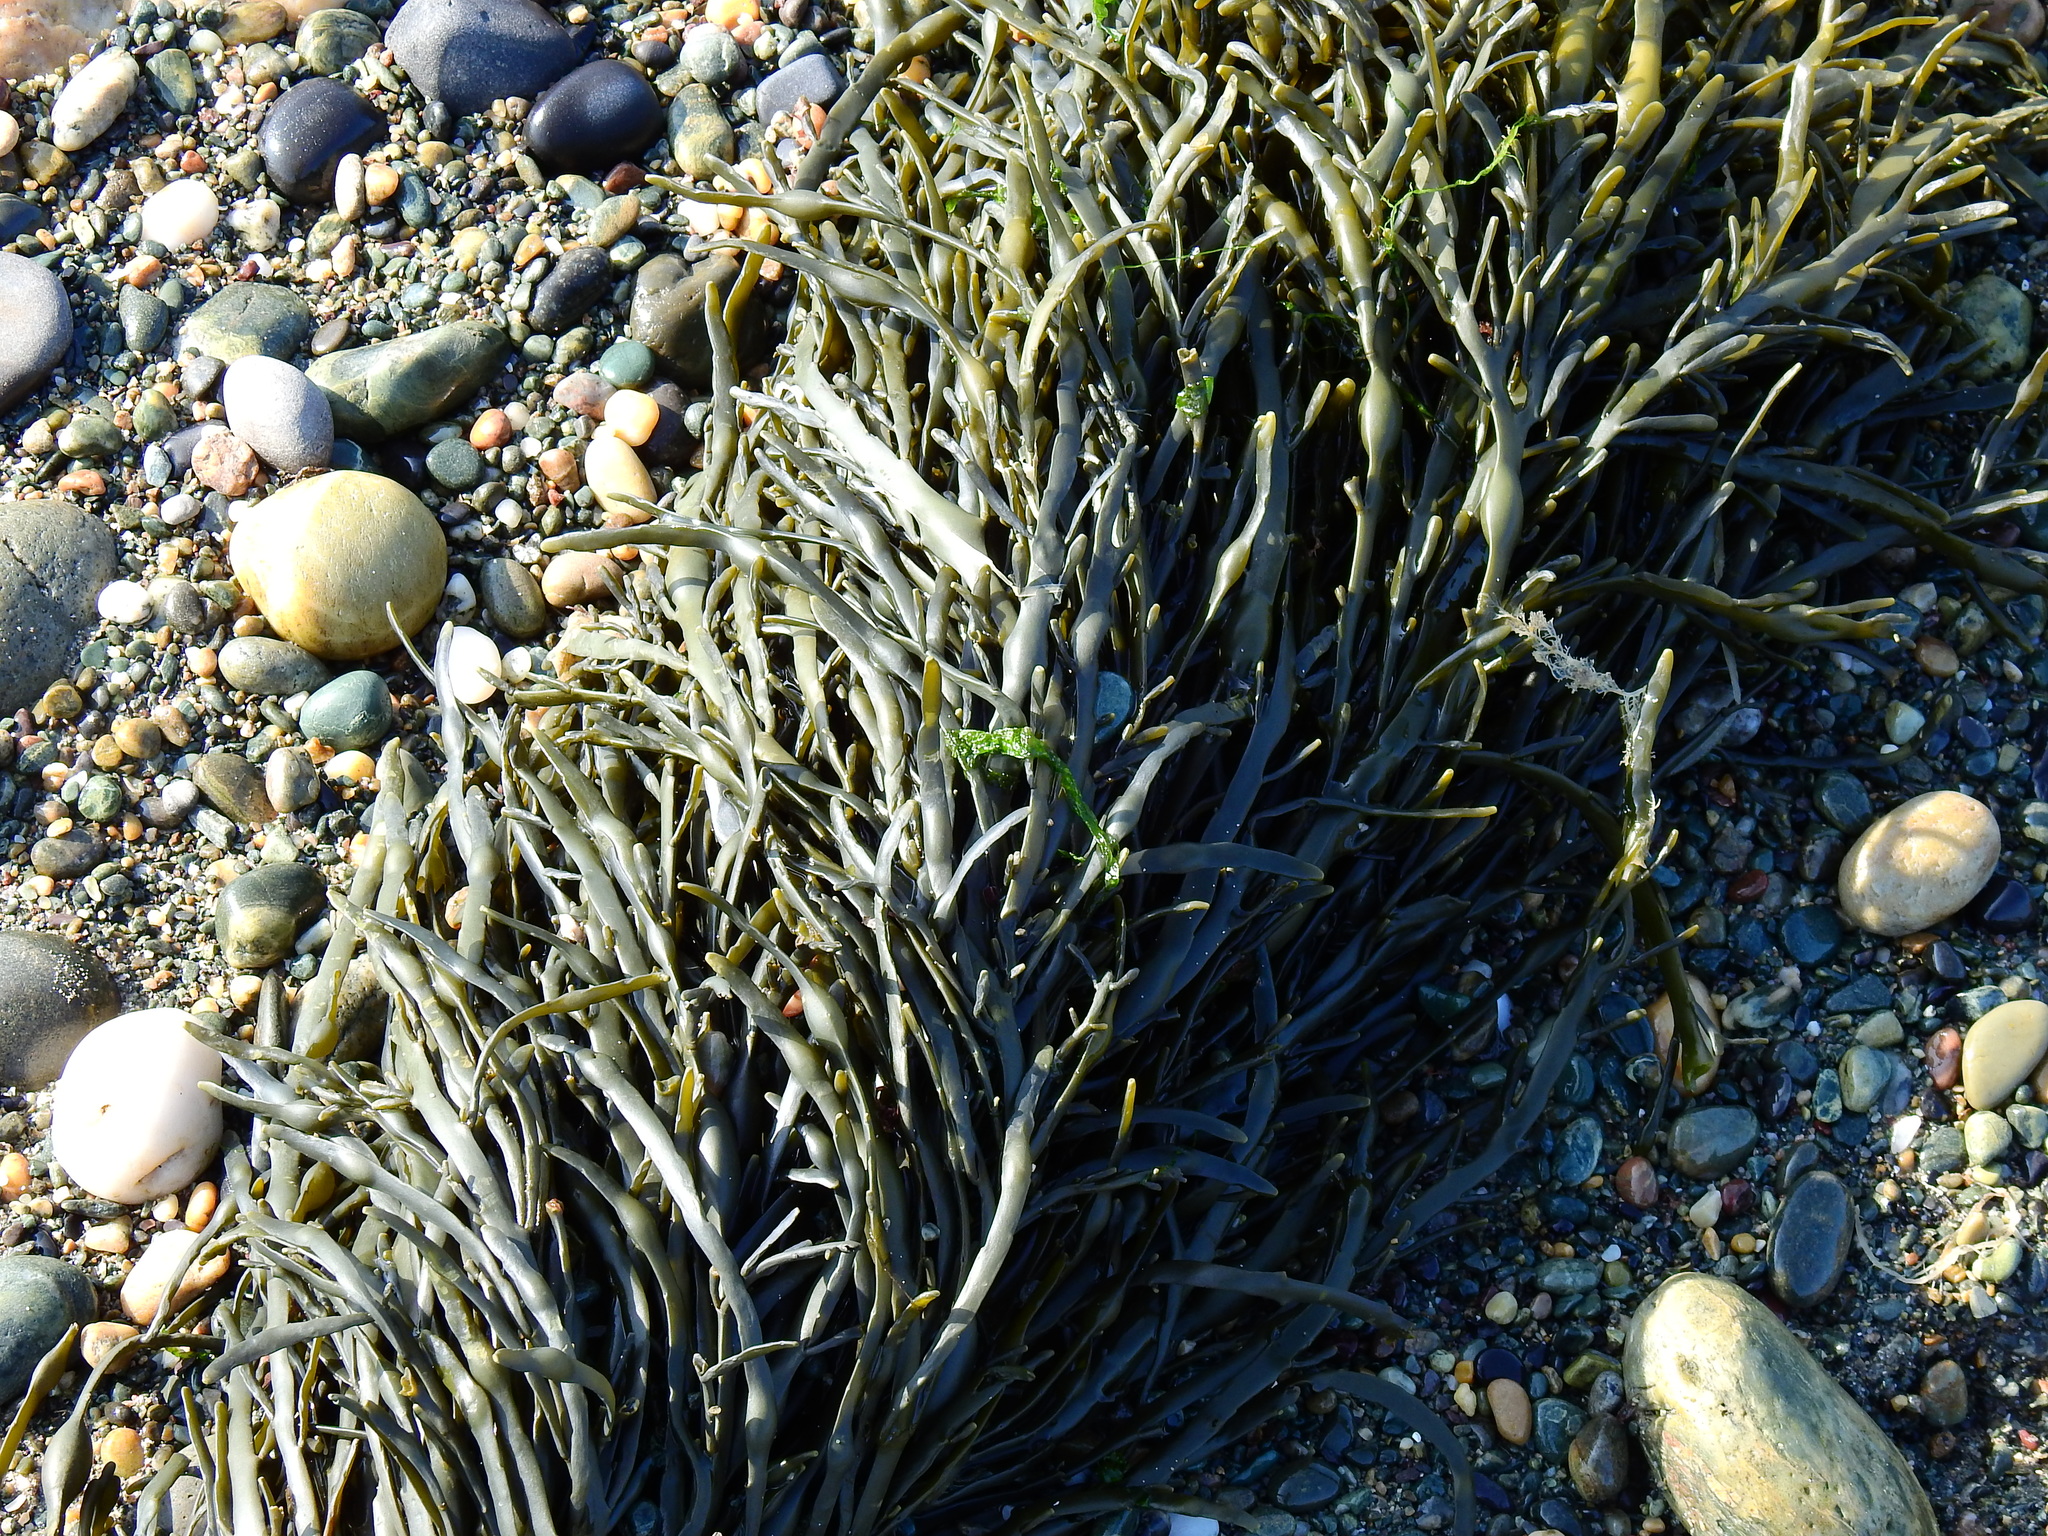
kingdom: Chromista
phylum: Ochrophyta
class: Phaeophyceae
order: Fucales
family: Fucaceae
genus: Ascophyllum
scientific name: Ascophyllum nodosum
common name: Knotted wrack
